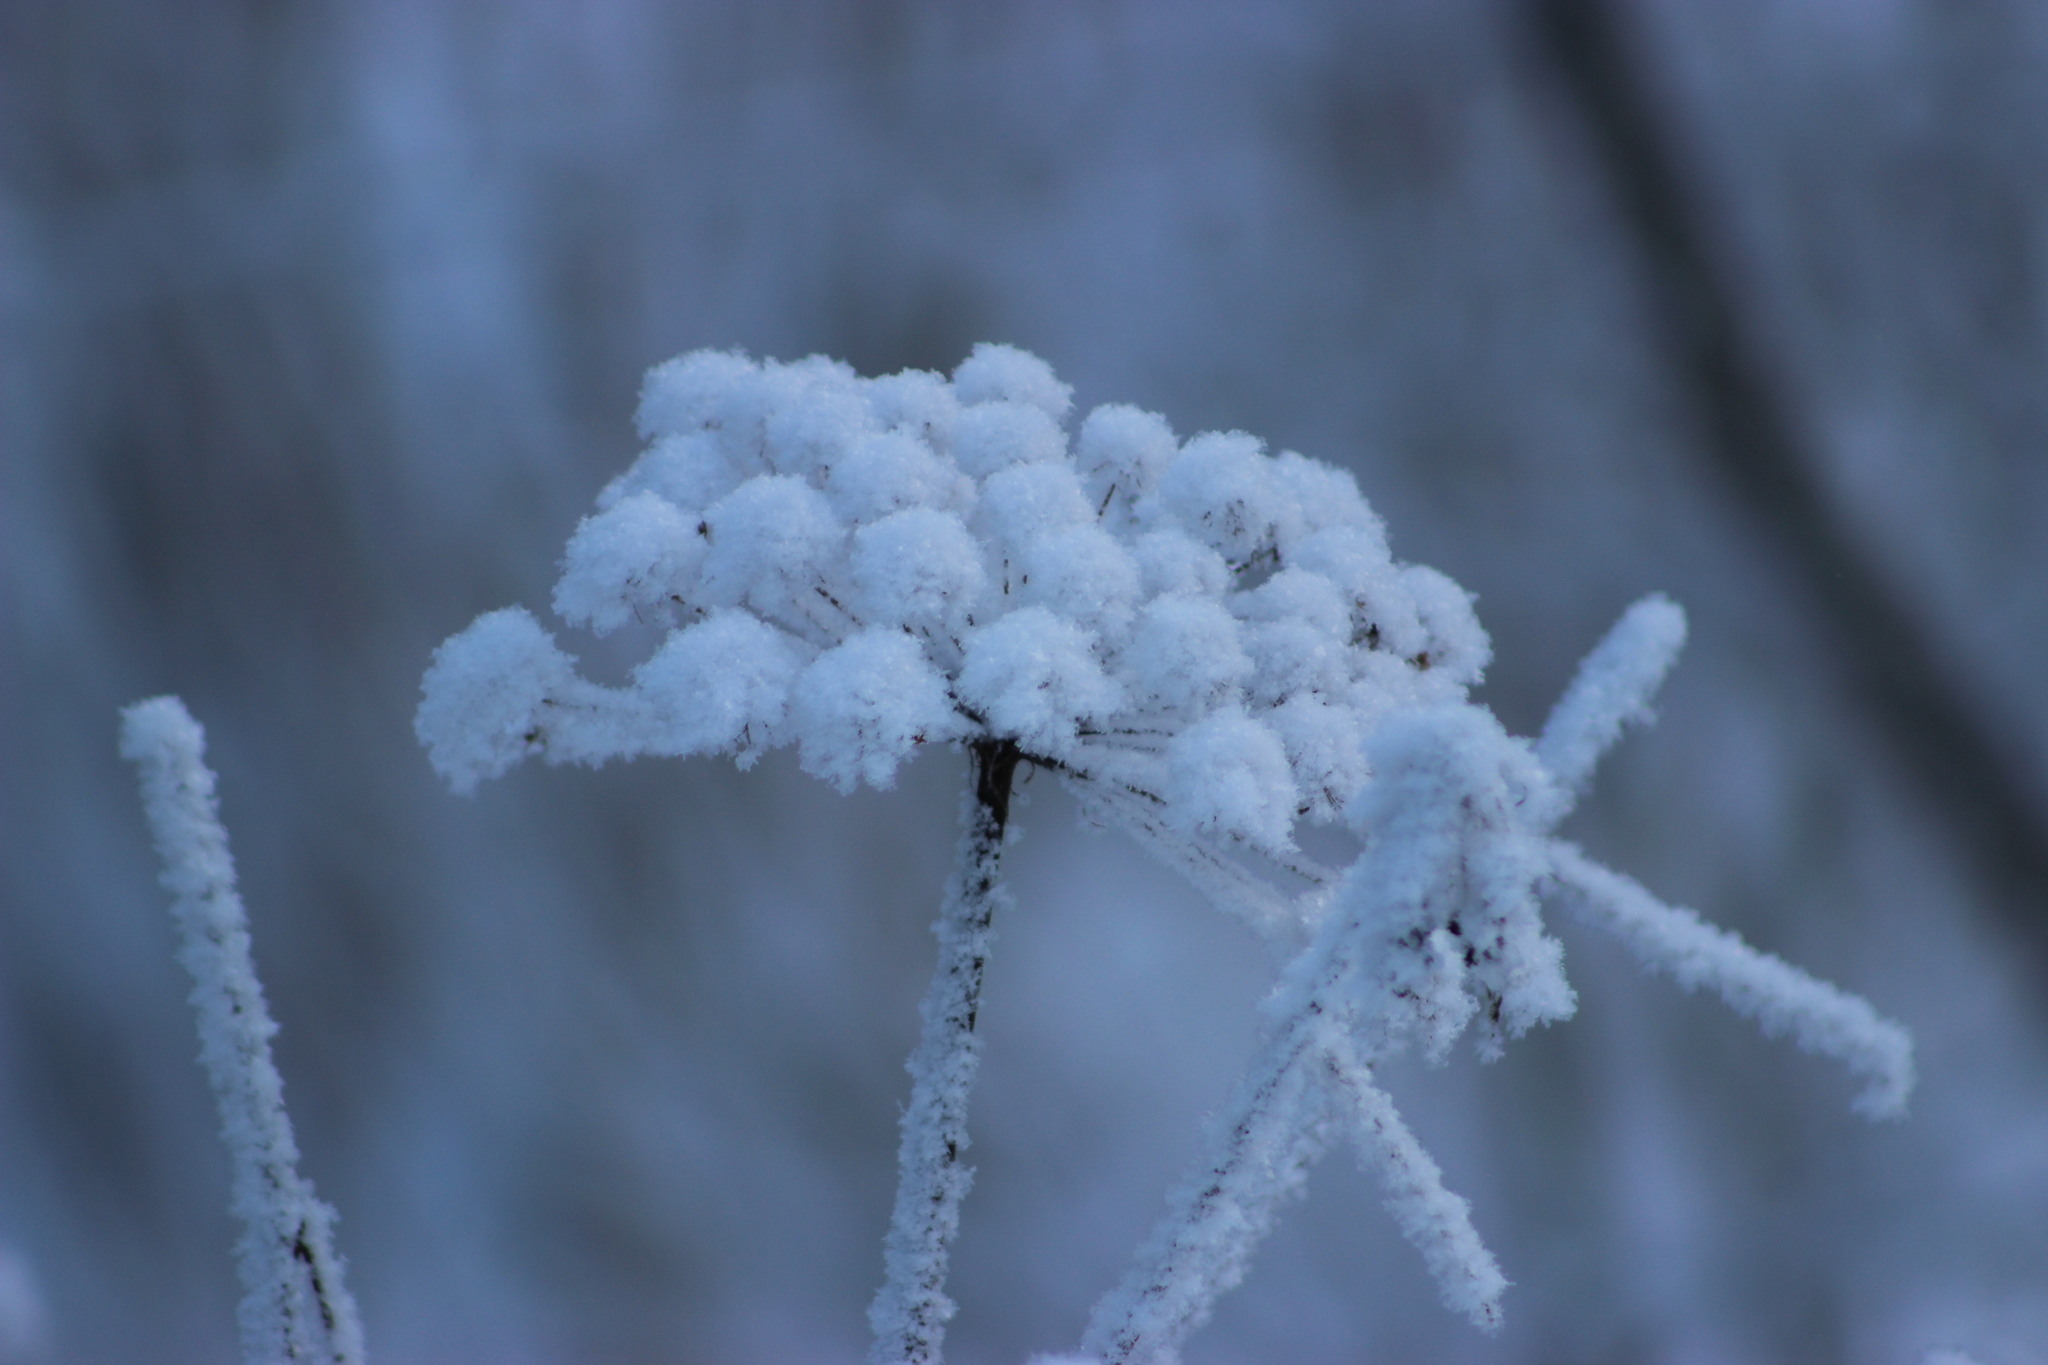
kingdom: Plantae
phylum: Tracheophyta
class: Magnoliopsida
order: Apiales
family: Apiaceae
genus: Angelica
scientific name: Angelica sylvestris
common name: Wild angelica
